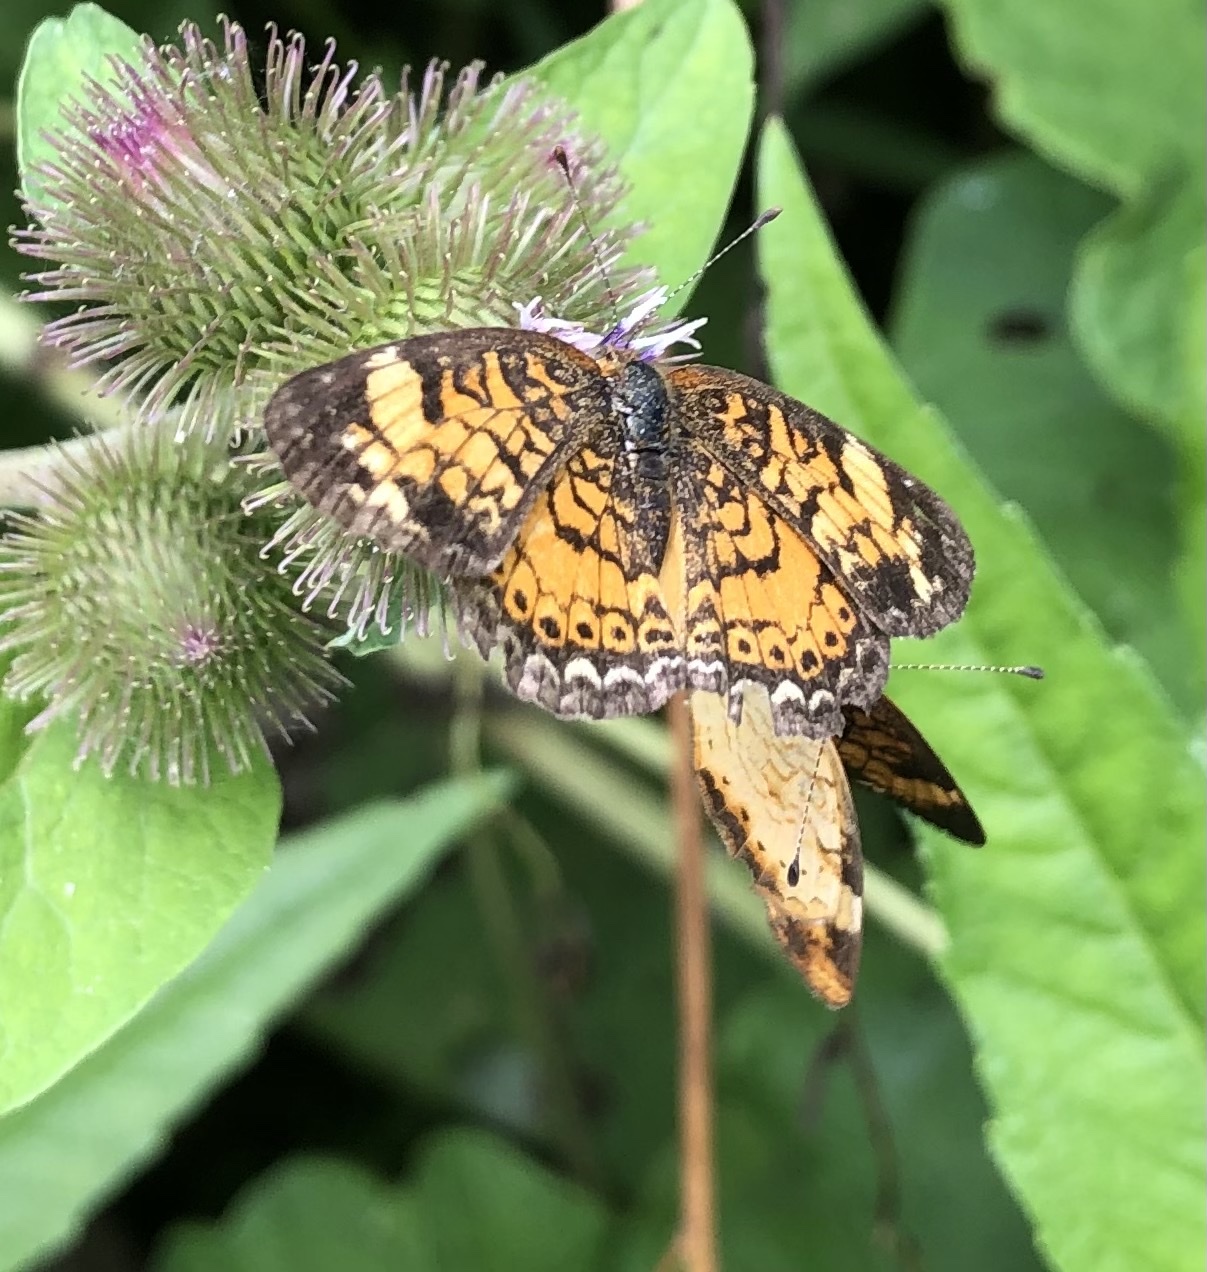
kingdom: Animalia
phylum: Arthropoda
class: Insecta
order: Lepidoptera
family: Nymphalidae
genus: Phyciodes
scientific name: Phyciodes tharos
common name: Pearl crescent
